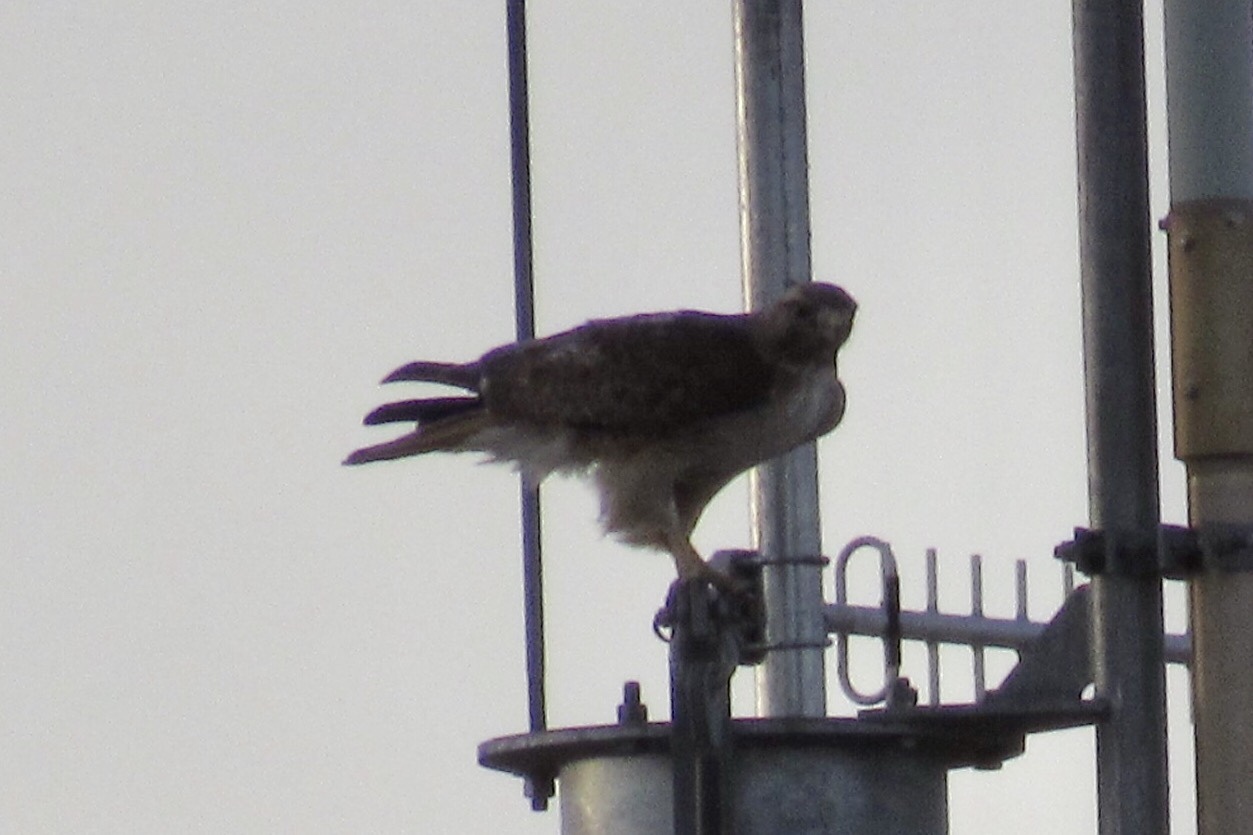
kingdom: Animalia
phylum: Chordata
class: Aves
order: Accipitriformes
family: Accipitridae
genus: Buteo
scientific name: Buteo jamaicensis
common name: Red-tailed hawk
